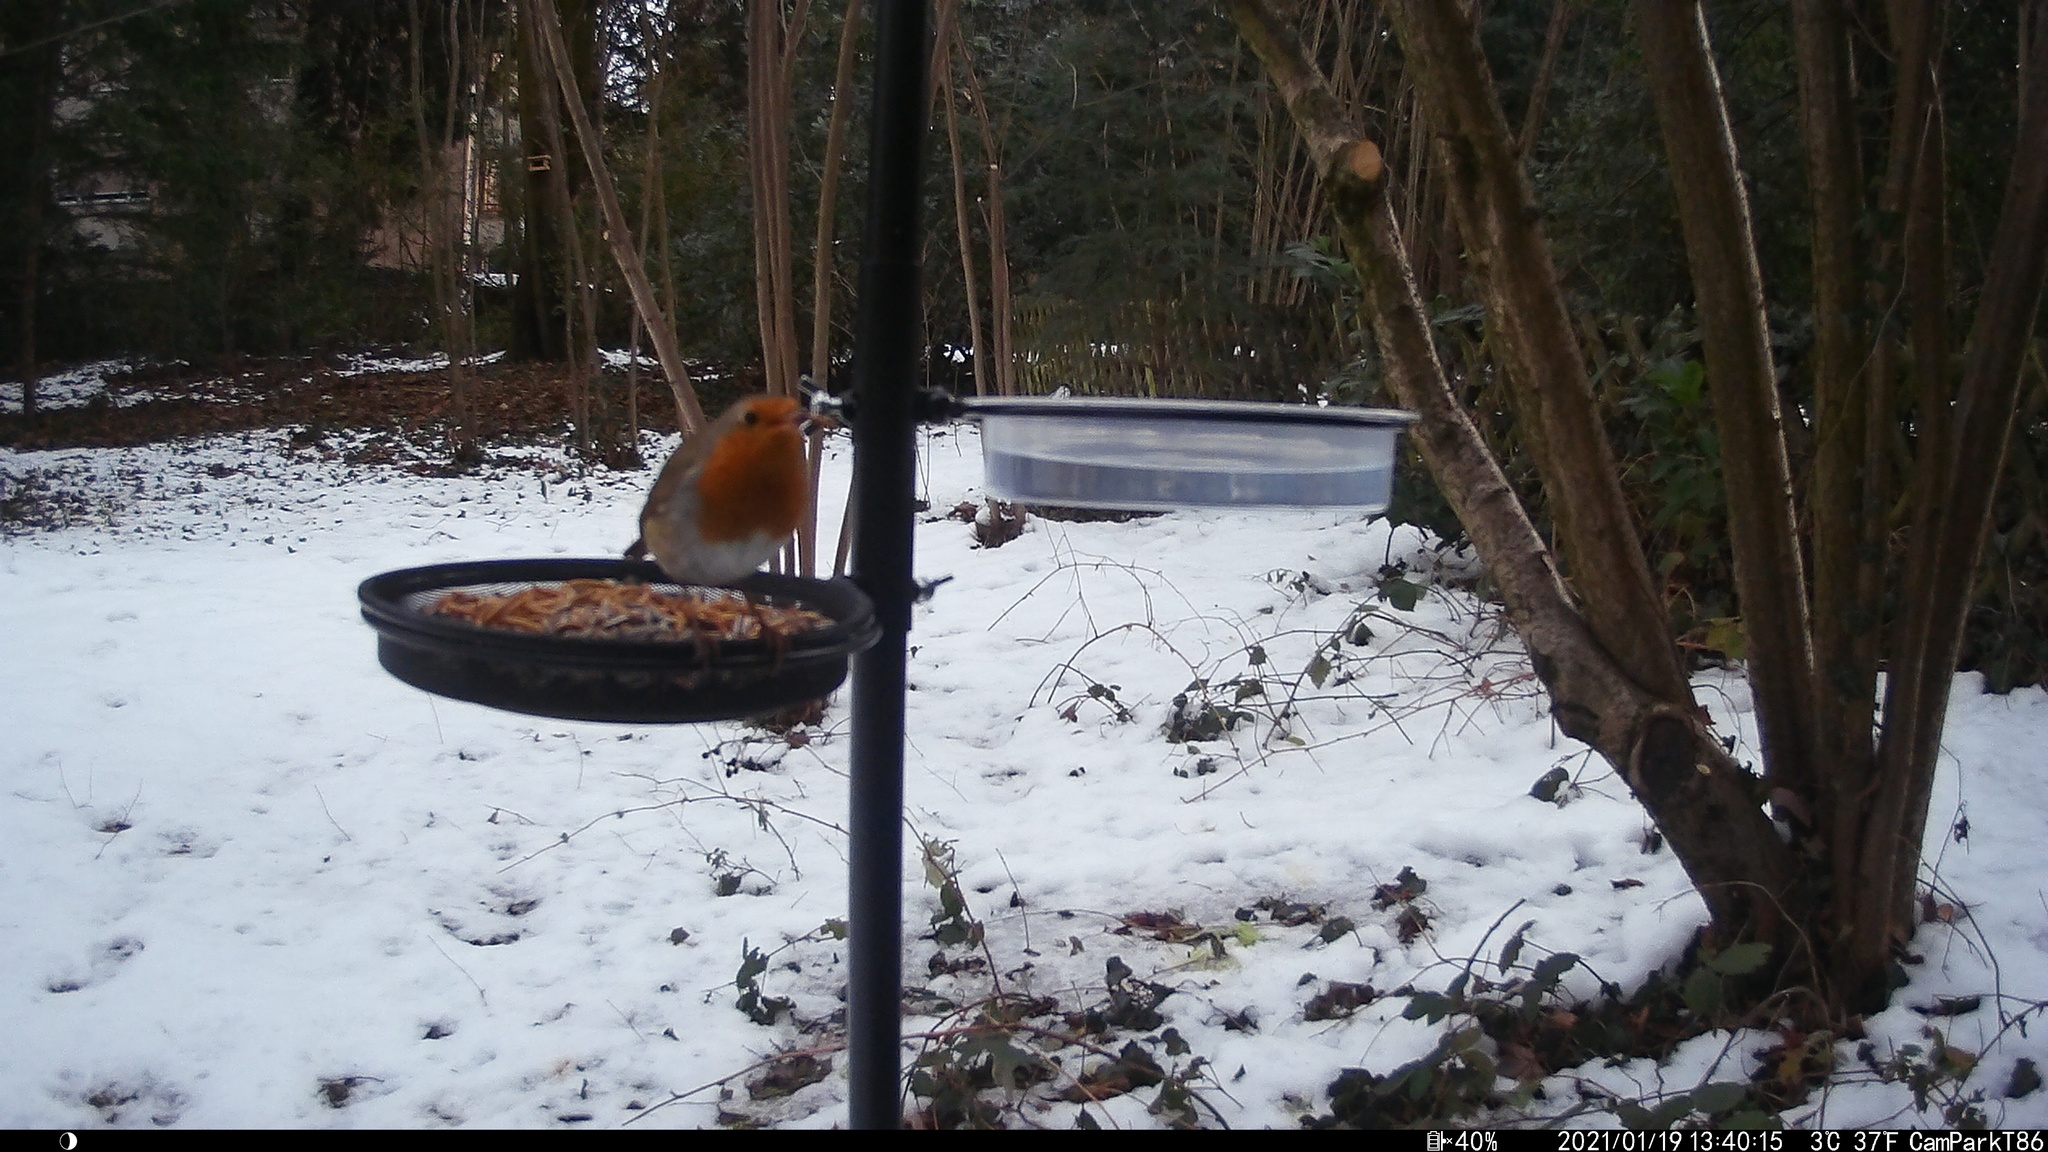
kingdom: Animalia
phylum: Chordata
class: Aves
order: Passeriformes
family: Muscicapidae
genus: Erithacus
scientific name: Erithacus rubecula
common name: European robin
